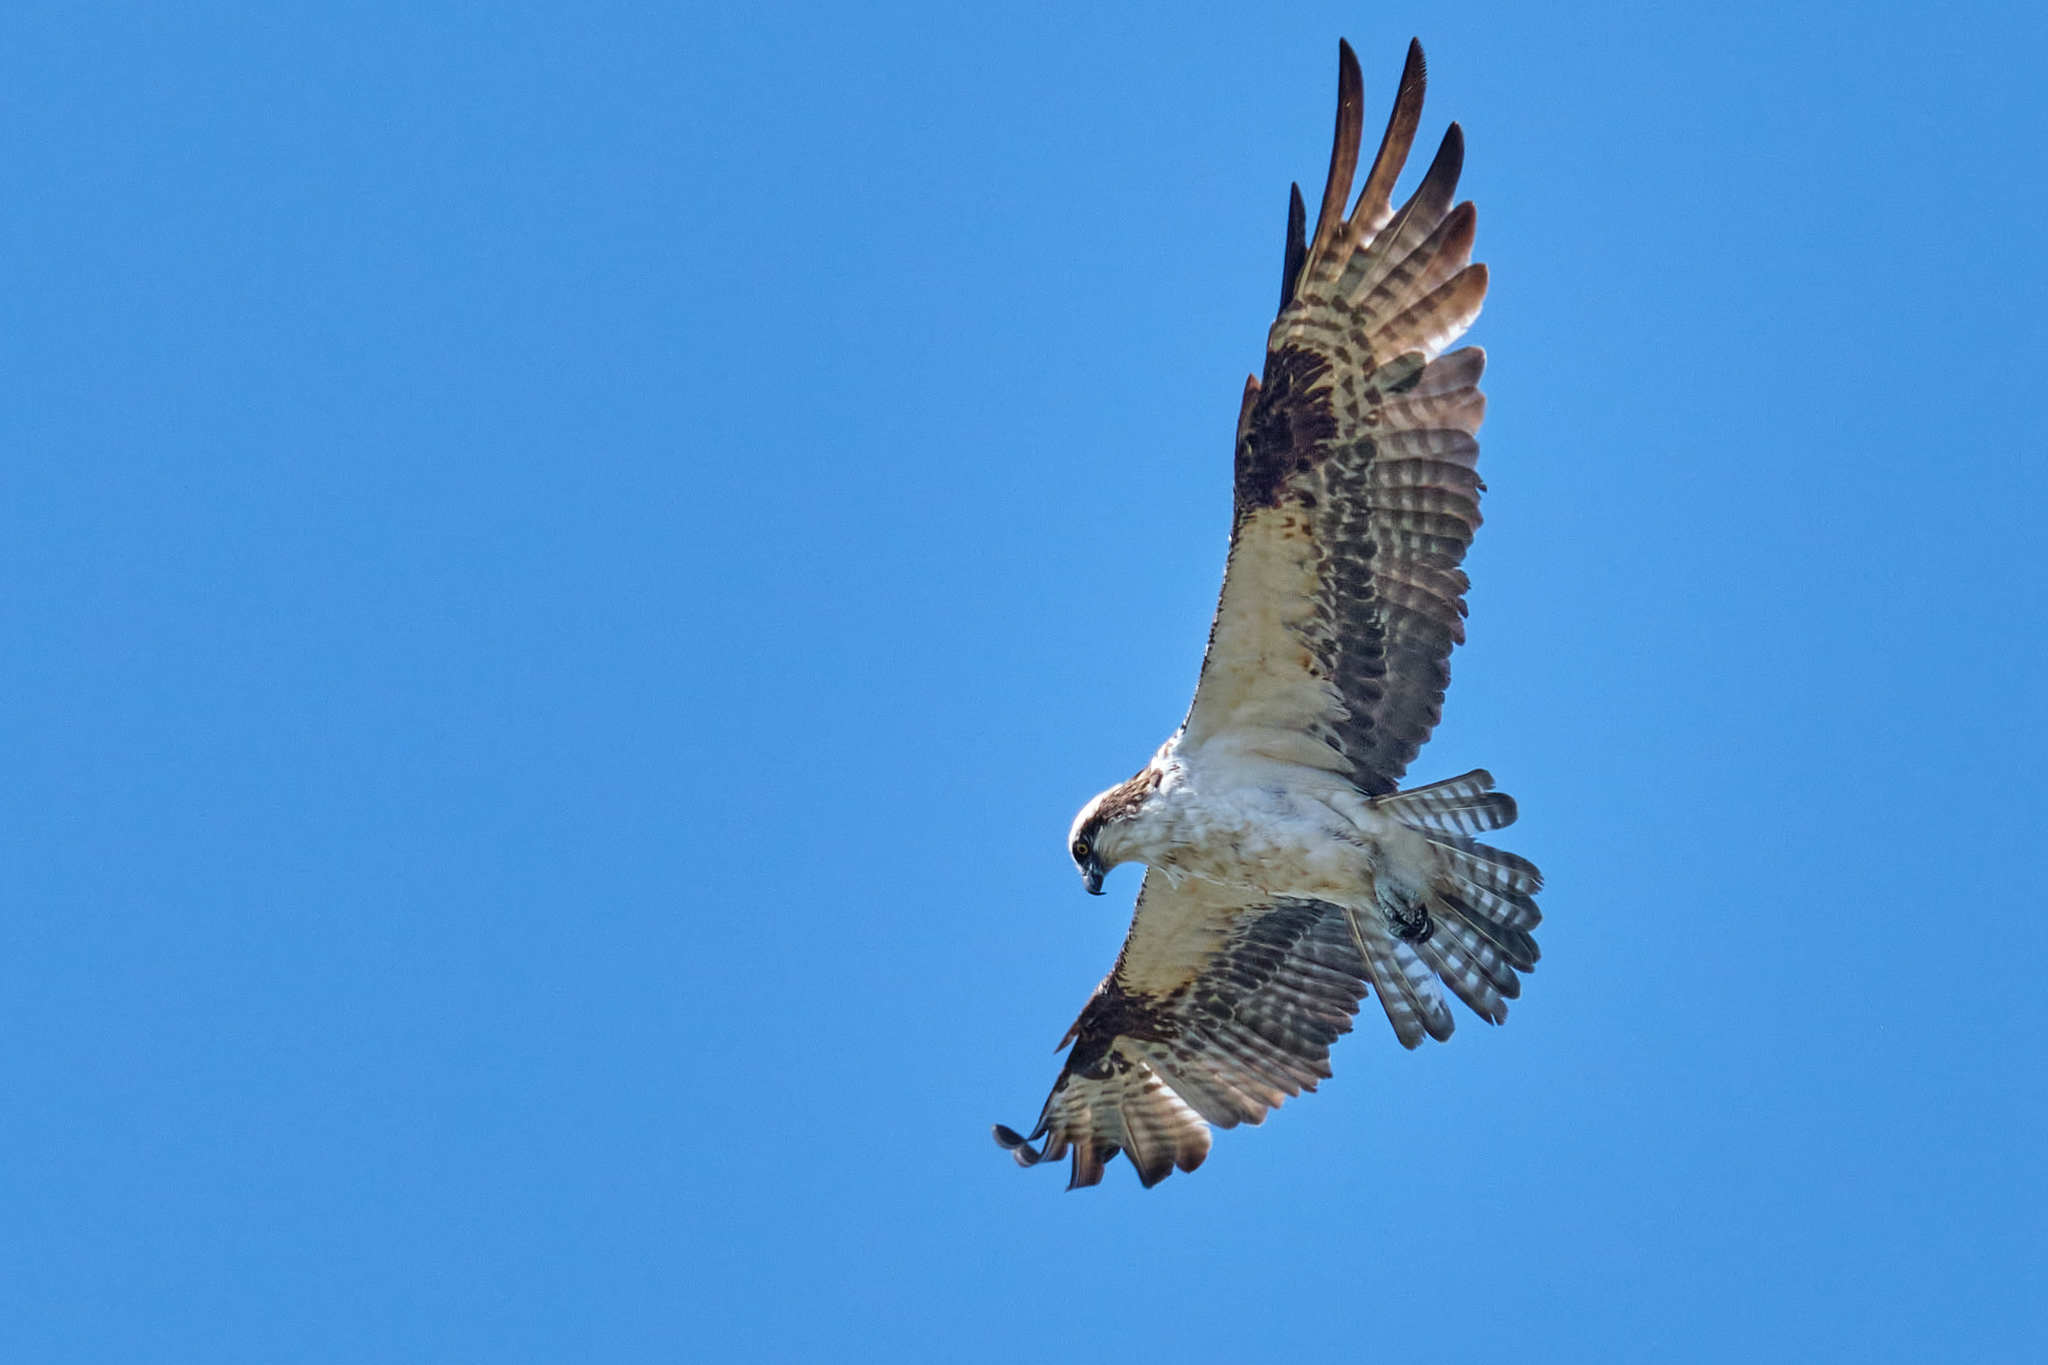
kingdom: Animalia
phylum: Chordata
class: Aves
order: Accipitriformes
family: Pandionidae
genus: Pandion
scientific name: Pandion haliaetus
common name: Osprey
